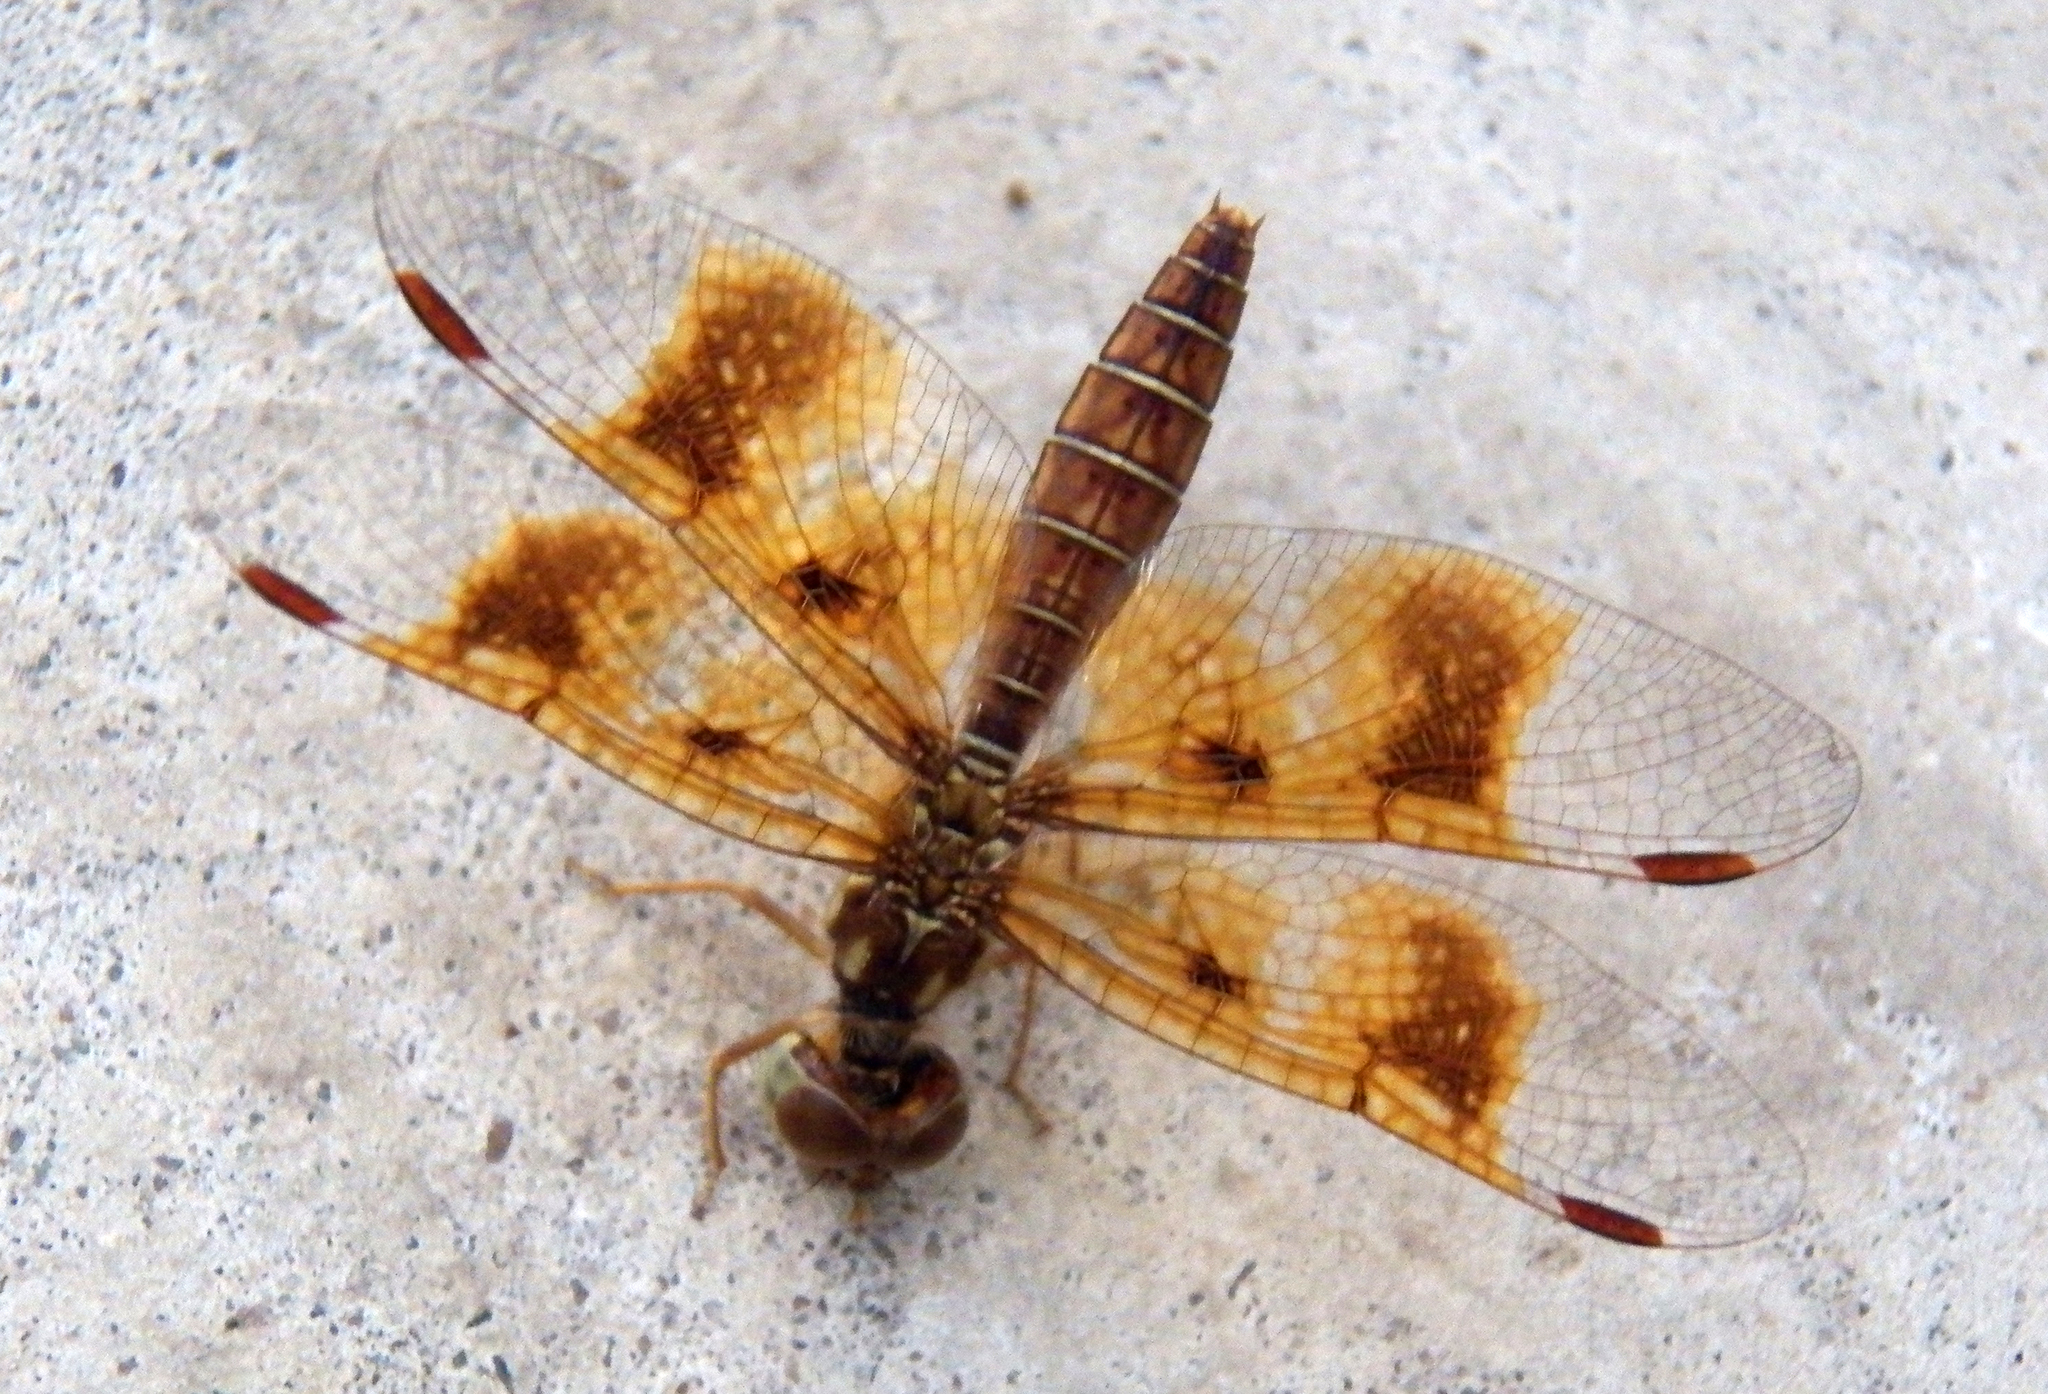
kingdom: Animalia
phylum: Arthropoda
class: Insecta
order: Odonata
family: Libellulidae
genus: Perithemis
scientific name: Perithemis tenera
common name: Eastern amberwing
